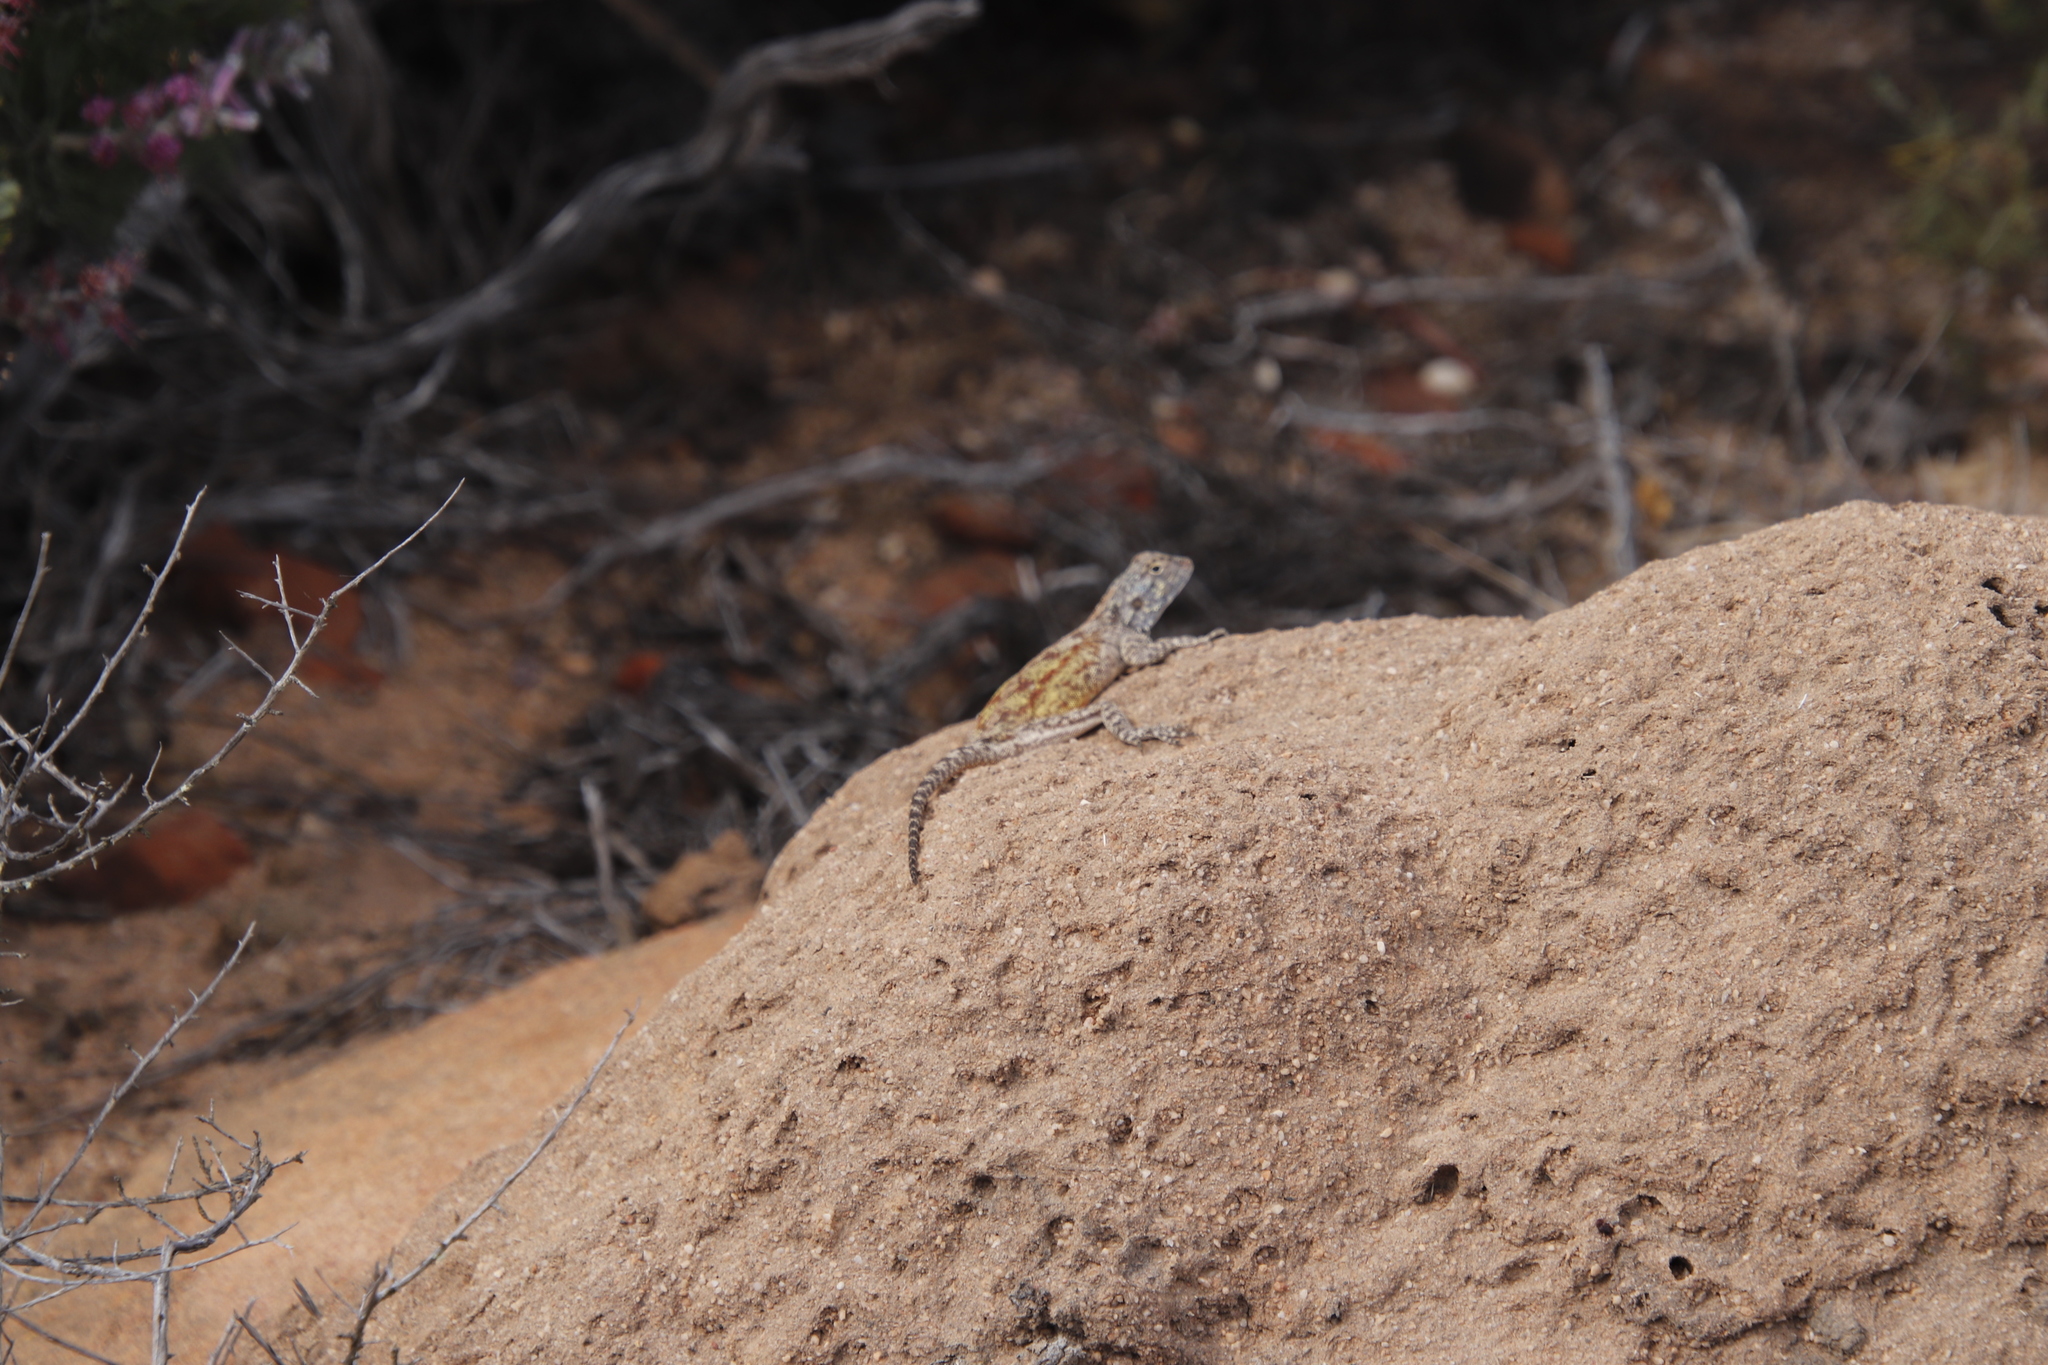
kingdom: Animalia
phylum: Chordata
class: Squamata
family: Agamidae
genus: Agama
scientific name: Agama atra
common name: Southern african rock agama
